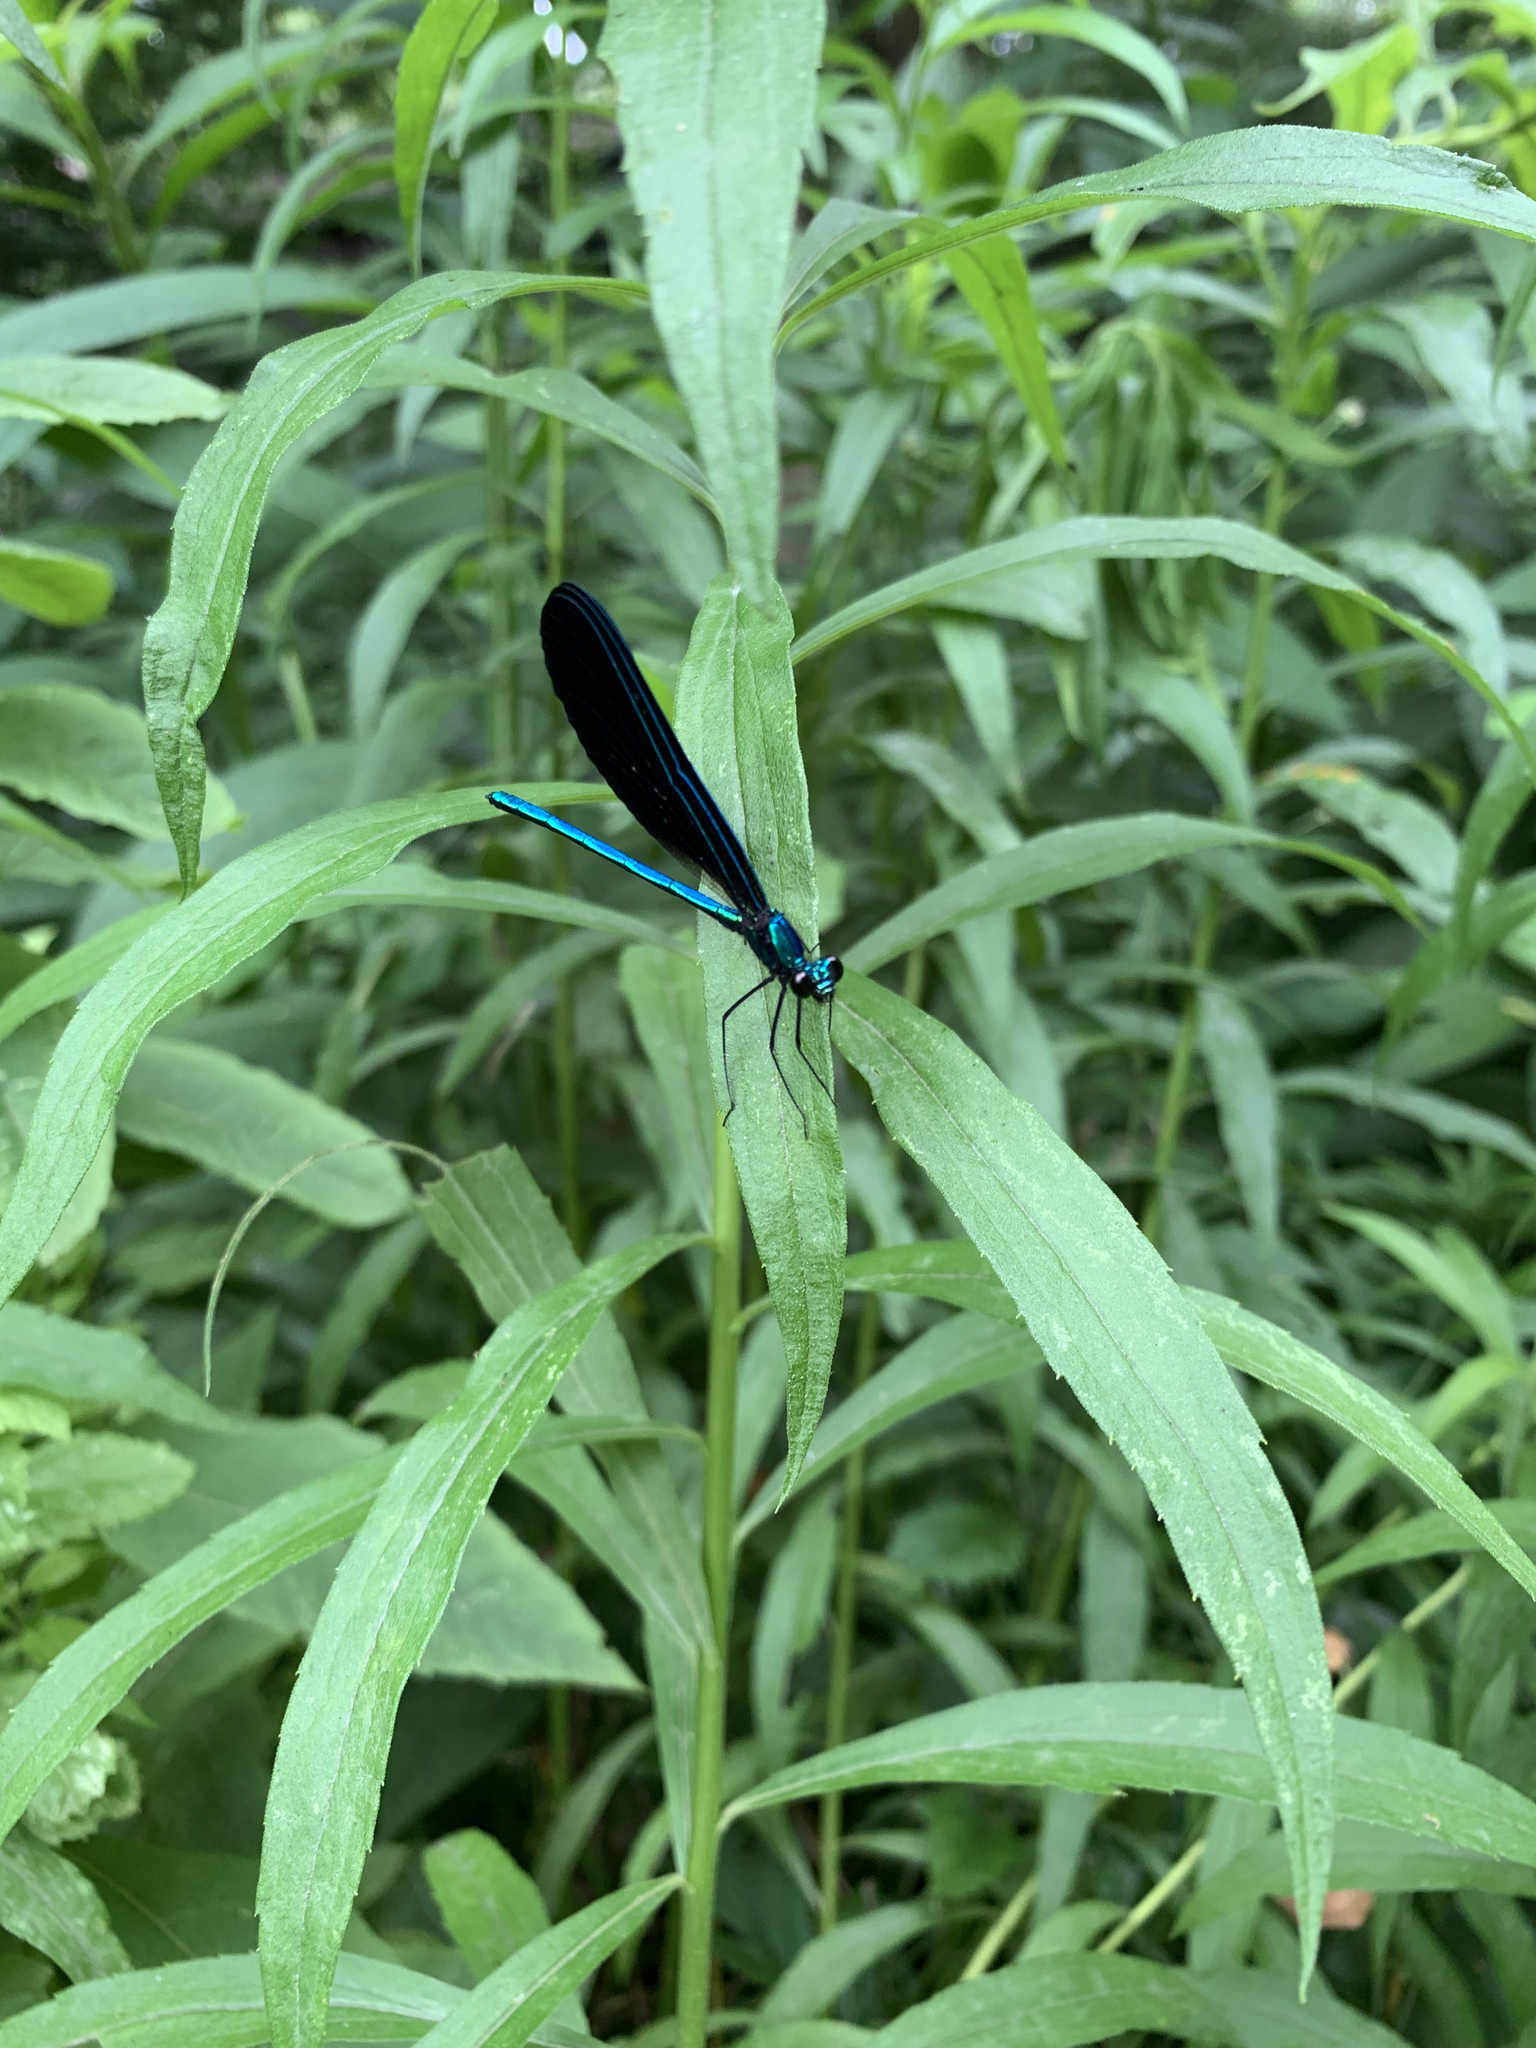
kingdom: Animalia
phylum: Arthropoda
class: Insecta
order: Odonata
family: Calopterygidae
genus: Calopteryx
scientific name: Calopteryx maculata
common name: Ebony jewelwing
